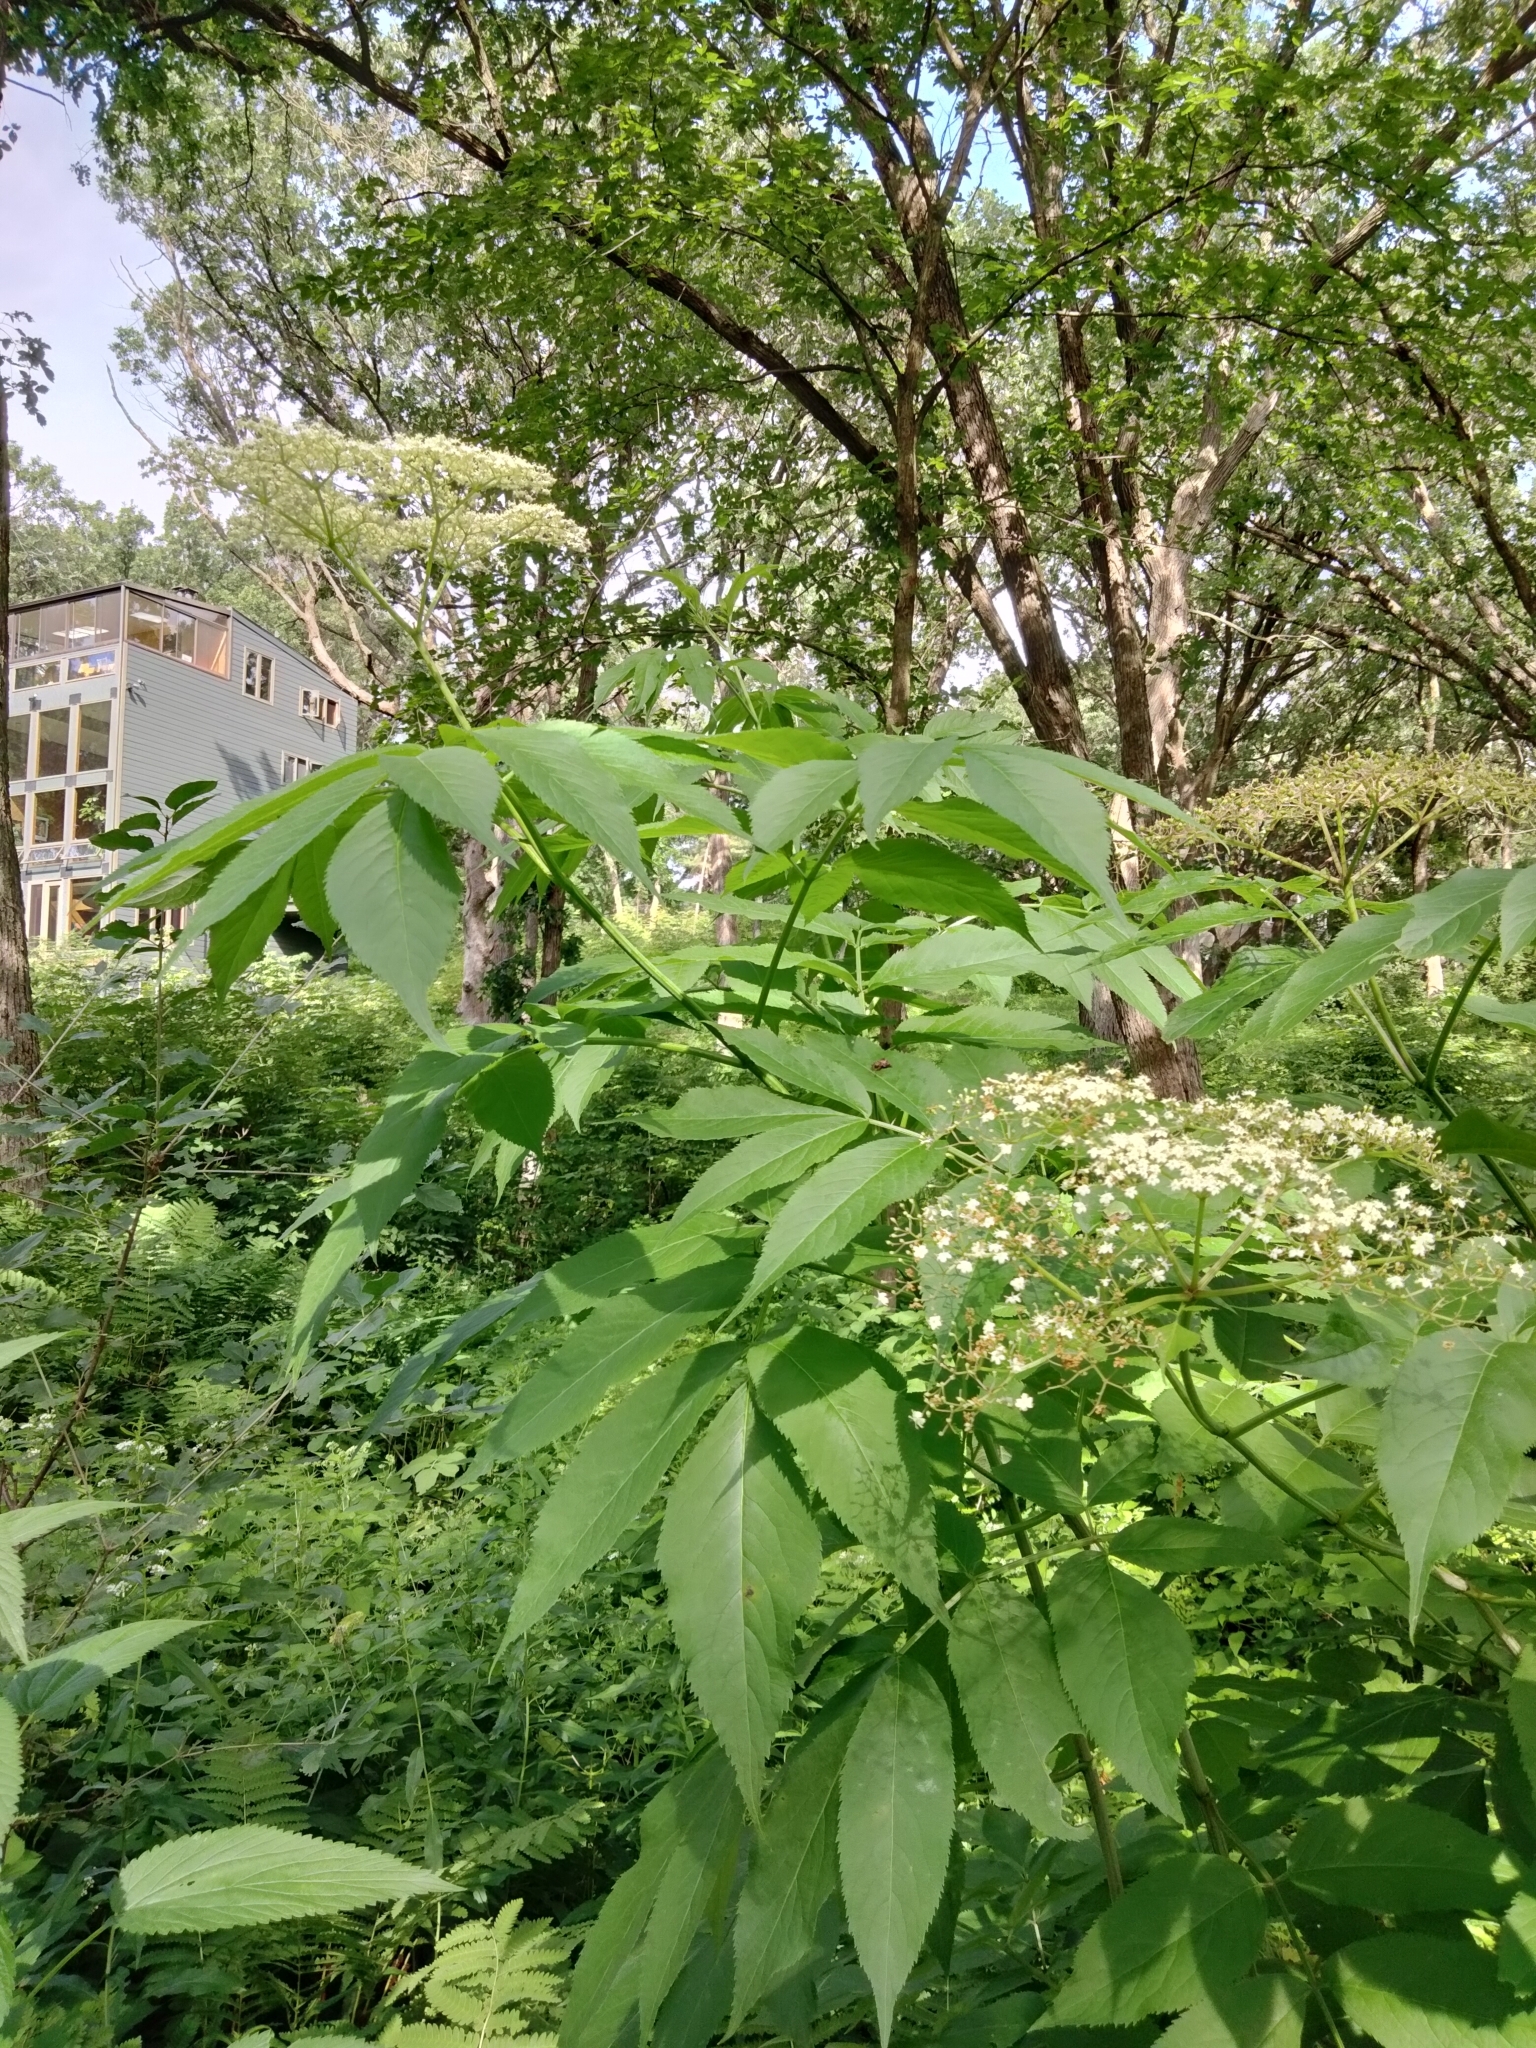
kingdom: Plantae
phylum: Tracheophyta
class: Magnoliopsida
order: Dipsacales
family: Viburnaceae
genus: Sambucus
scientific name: Sambucus canadensis
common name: American elder
